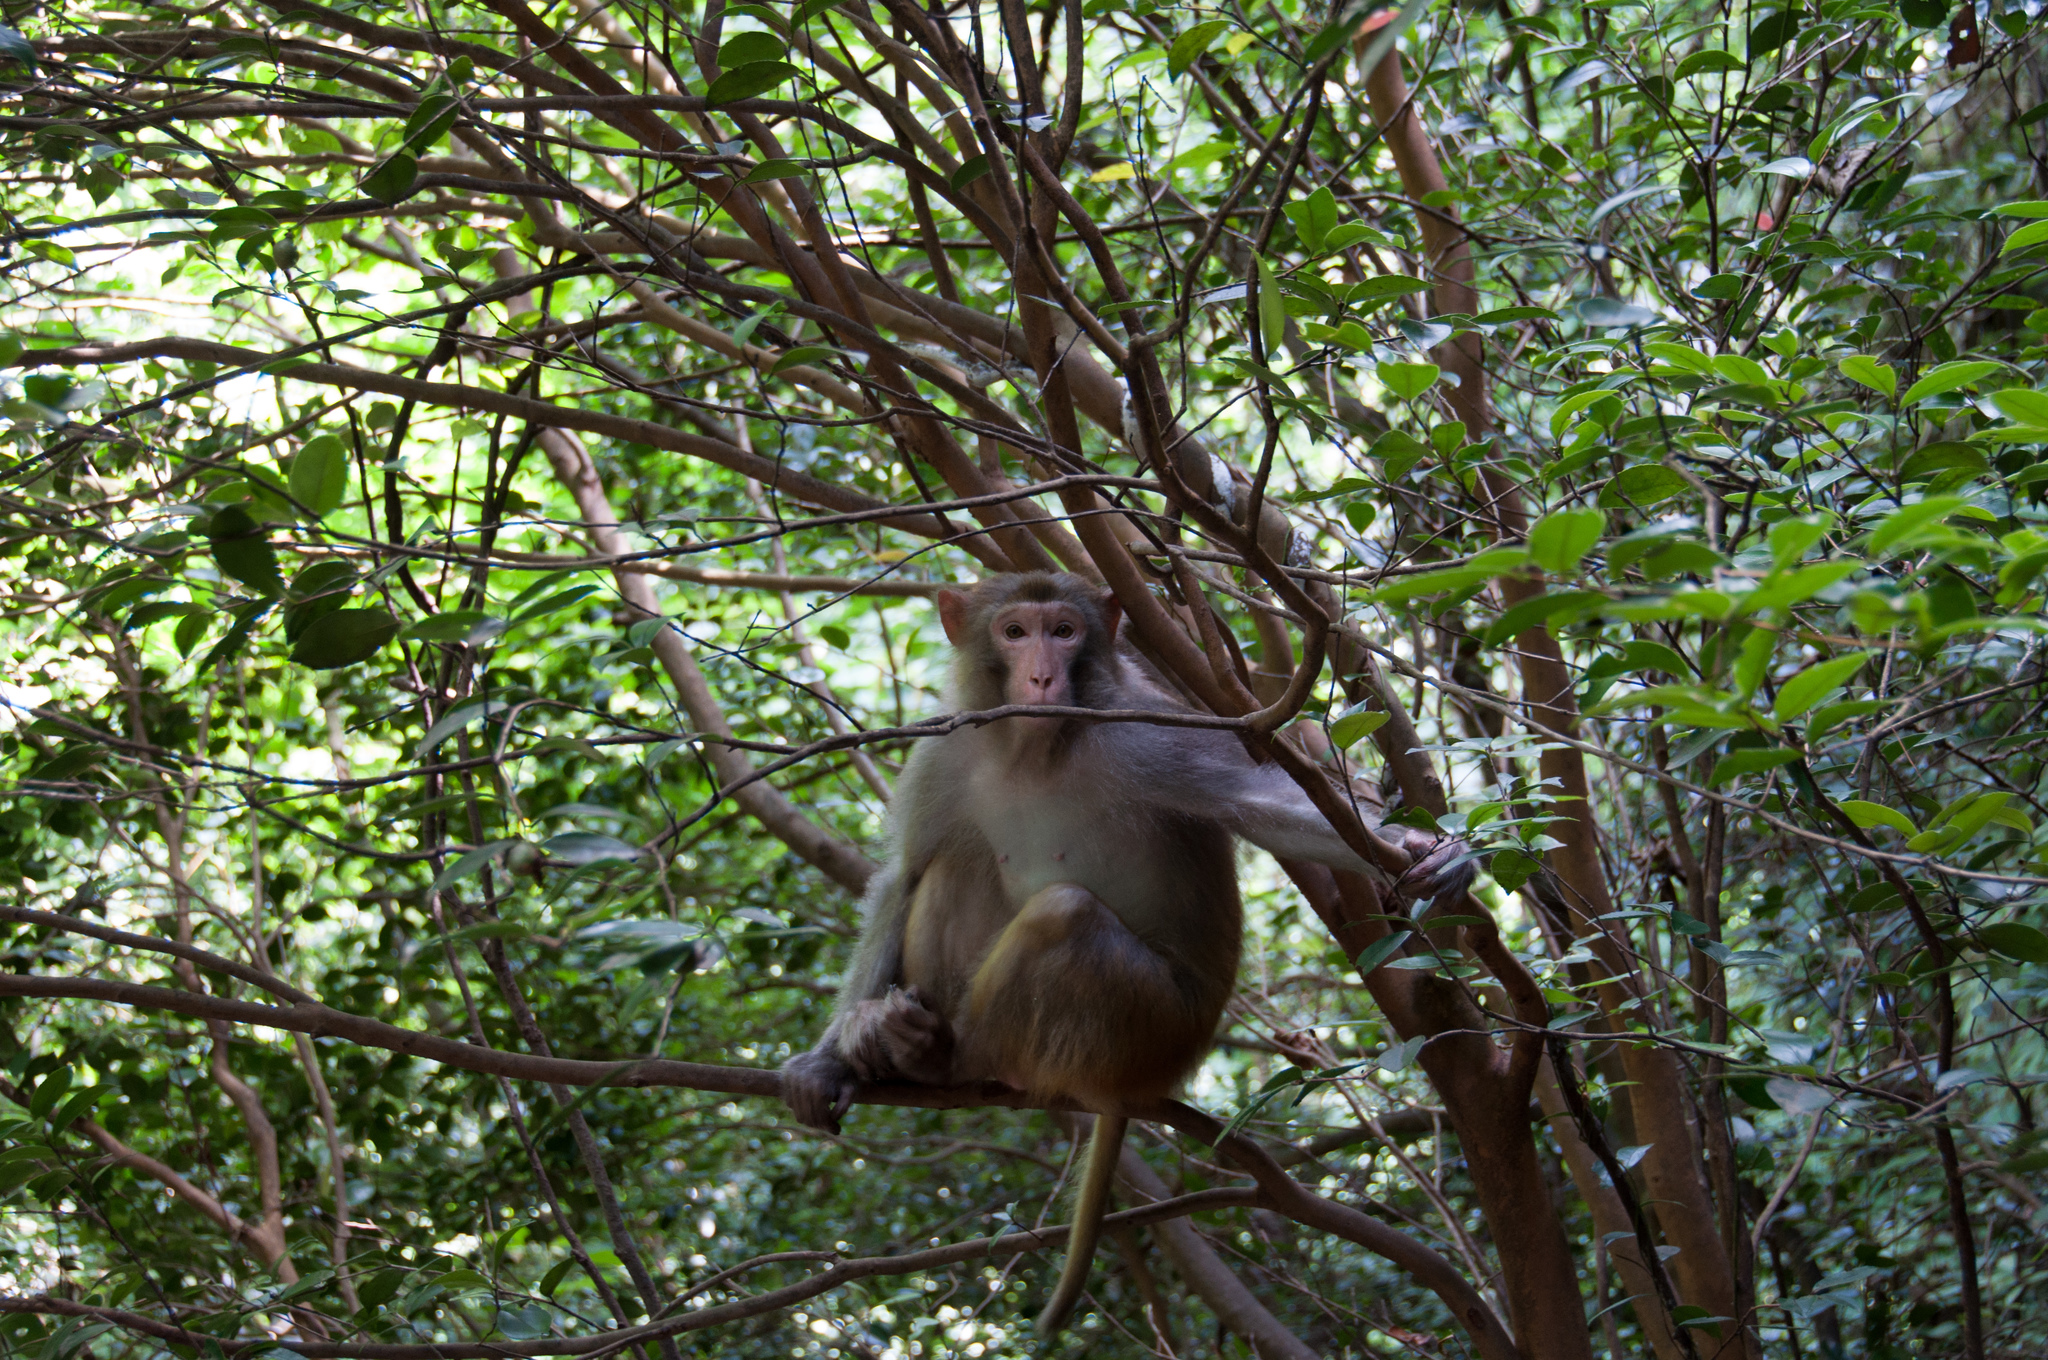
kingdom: Animalia
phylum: Chordata
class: Mammalia
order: Primates
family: Cercopithecidae
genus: Macaca
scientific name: Macaca mulatta
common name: Rhesus monkey
